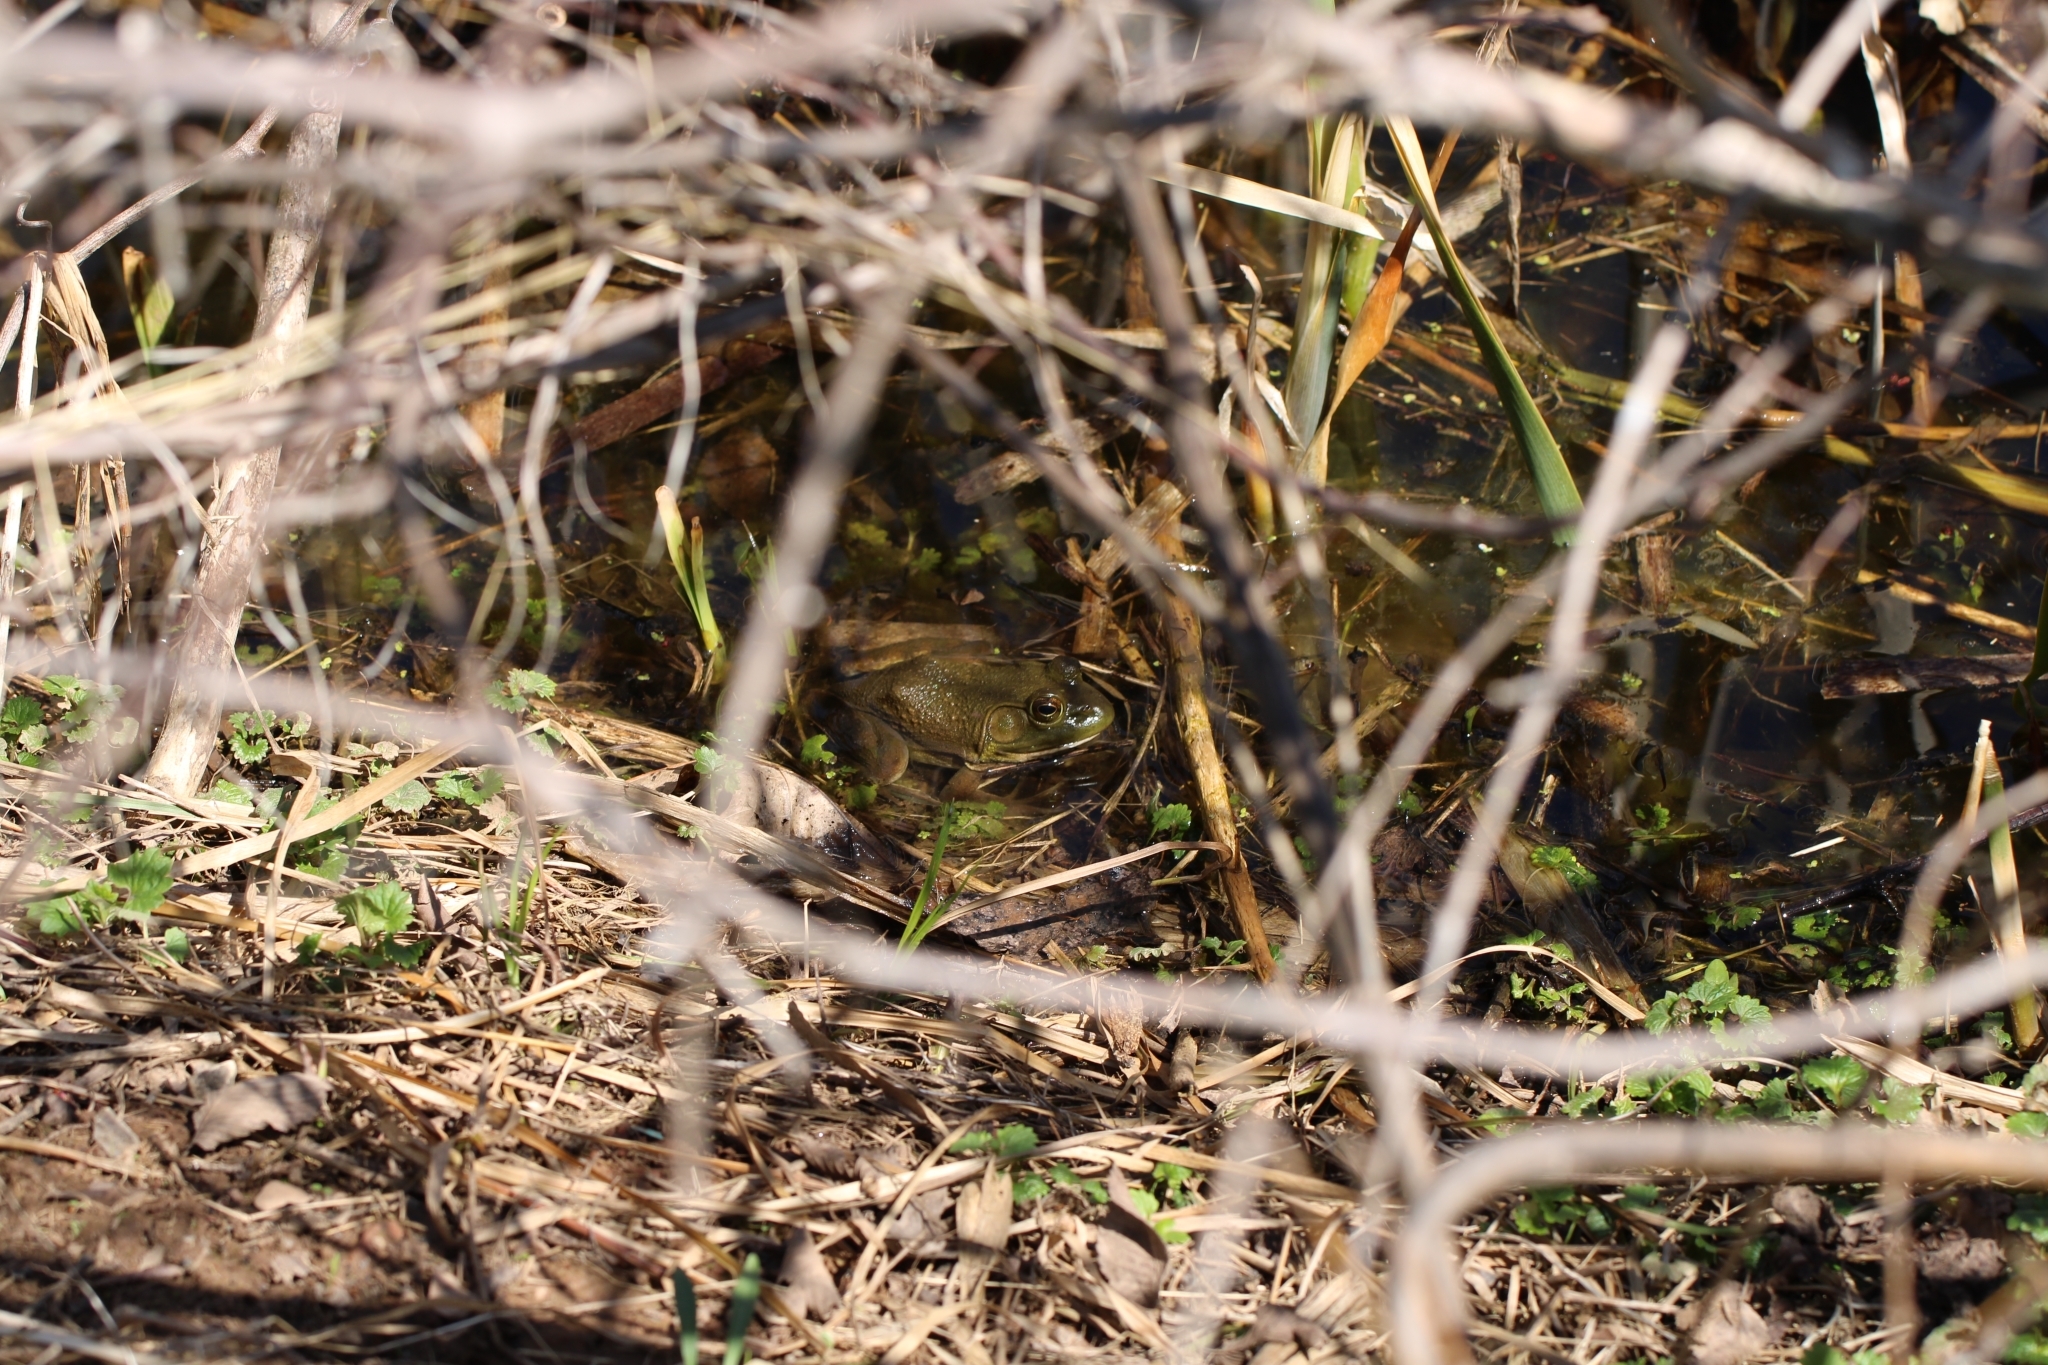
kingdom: Animalia
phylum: Chordata
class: Amphibia
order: Anura
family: Ranidae
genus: Lithobates
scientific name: Lithobates catesbeianus
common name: American bullfrog
